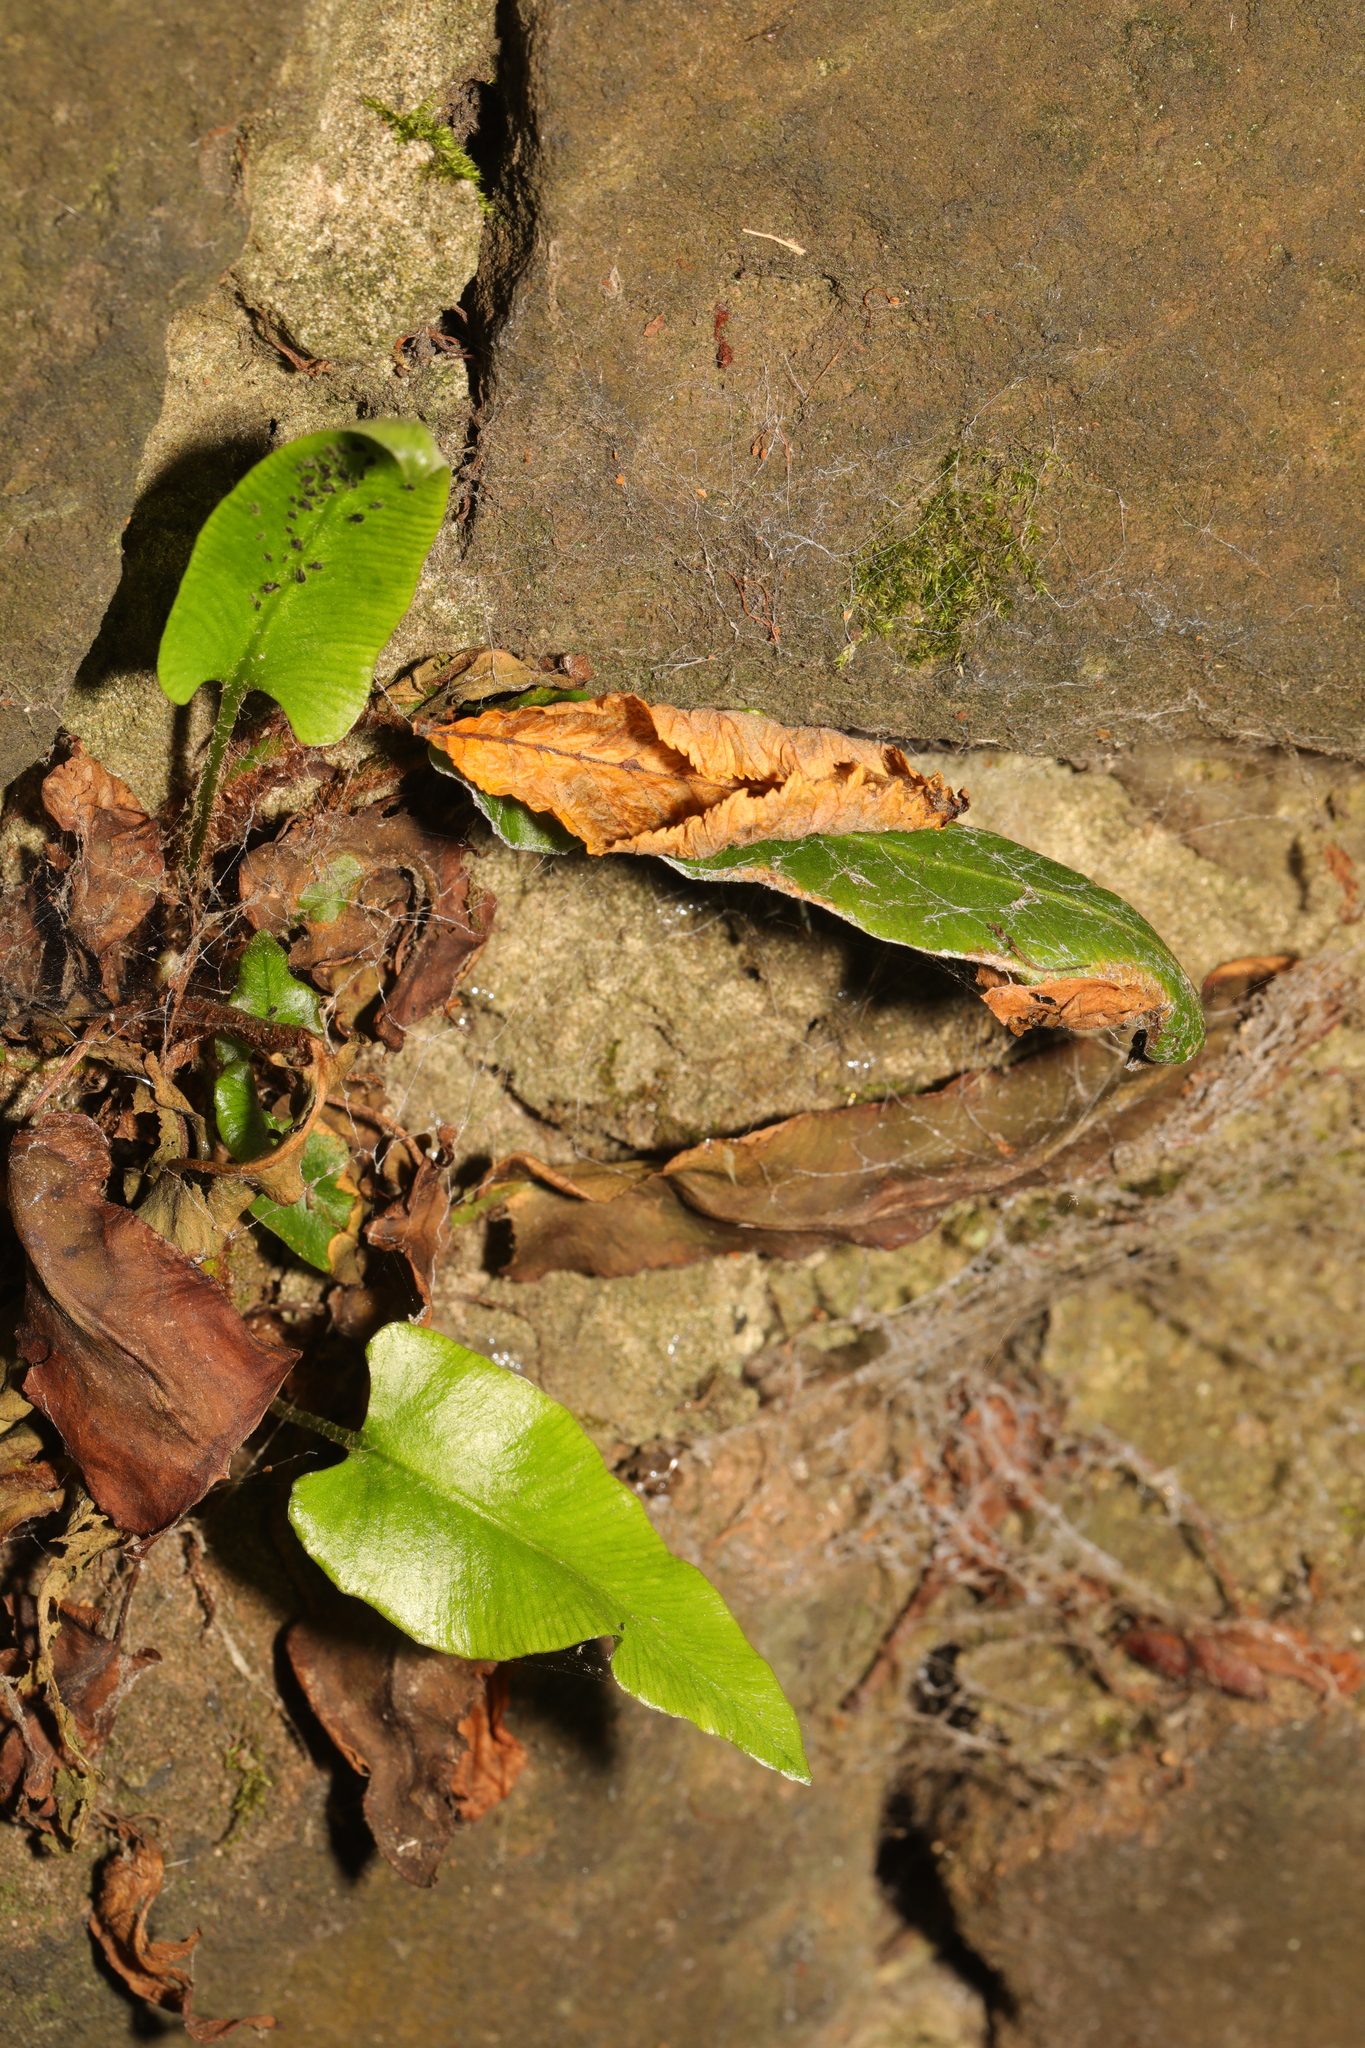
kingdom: Plantae
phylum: Tracheophyta
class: Polypodiopsida
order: Polypodiales
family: Aspleniaceae
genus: Asplenium
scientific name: Asplenium scolopendrium
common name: Hart's-tongue fern
